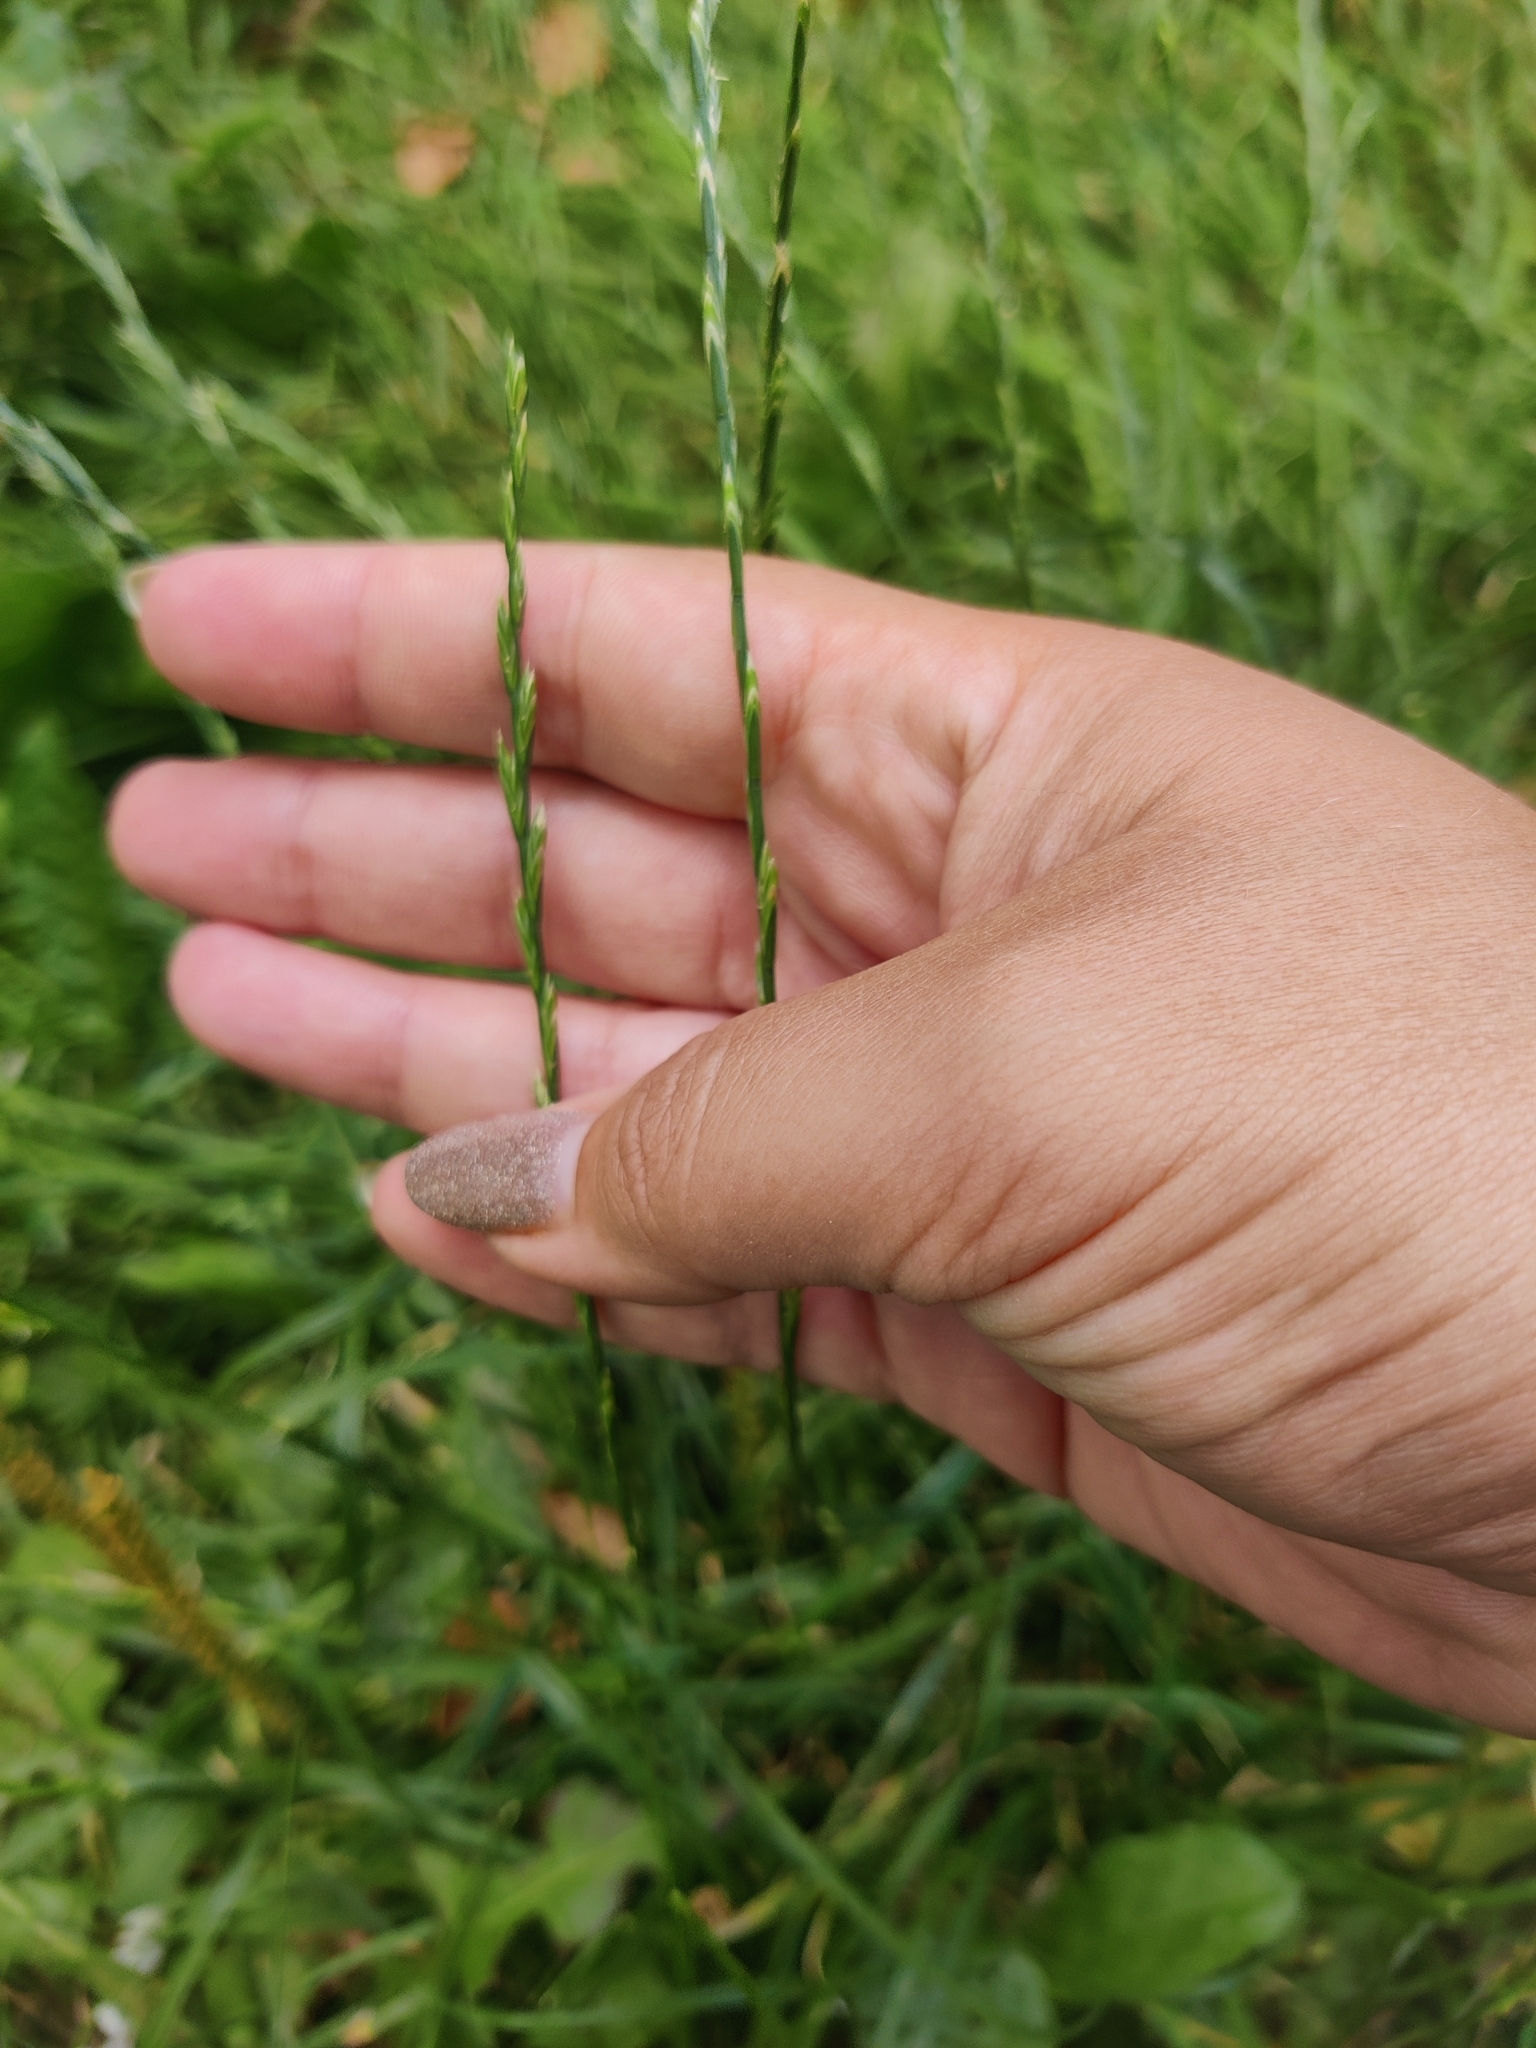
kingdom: Plantae
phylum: Tracheophyta
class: Liliopsida
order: Poales
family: Poaceae
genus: Lolium
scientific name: Lolium perenne
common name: Perennial ryegrass
